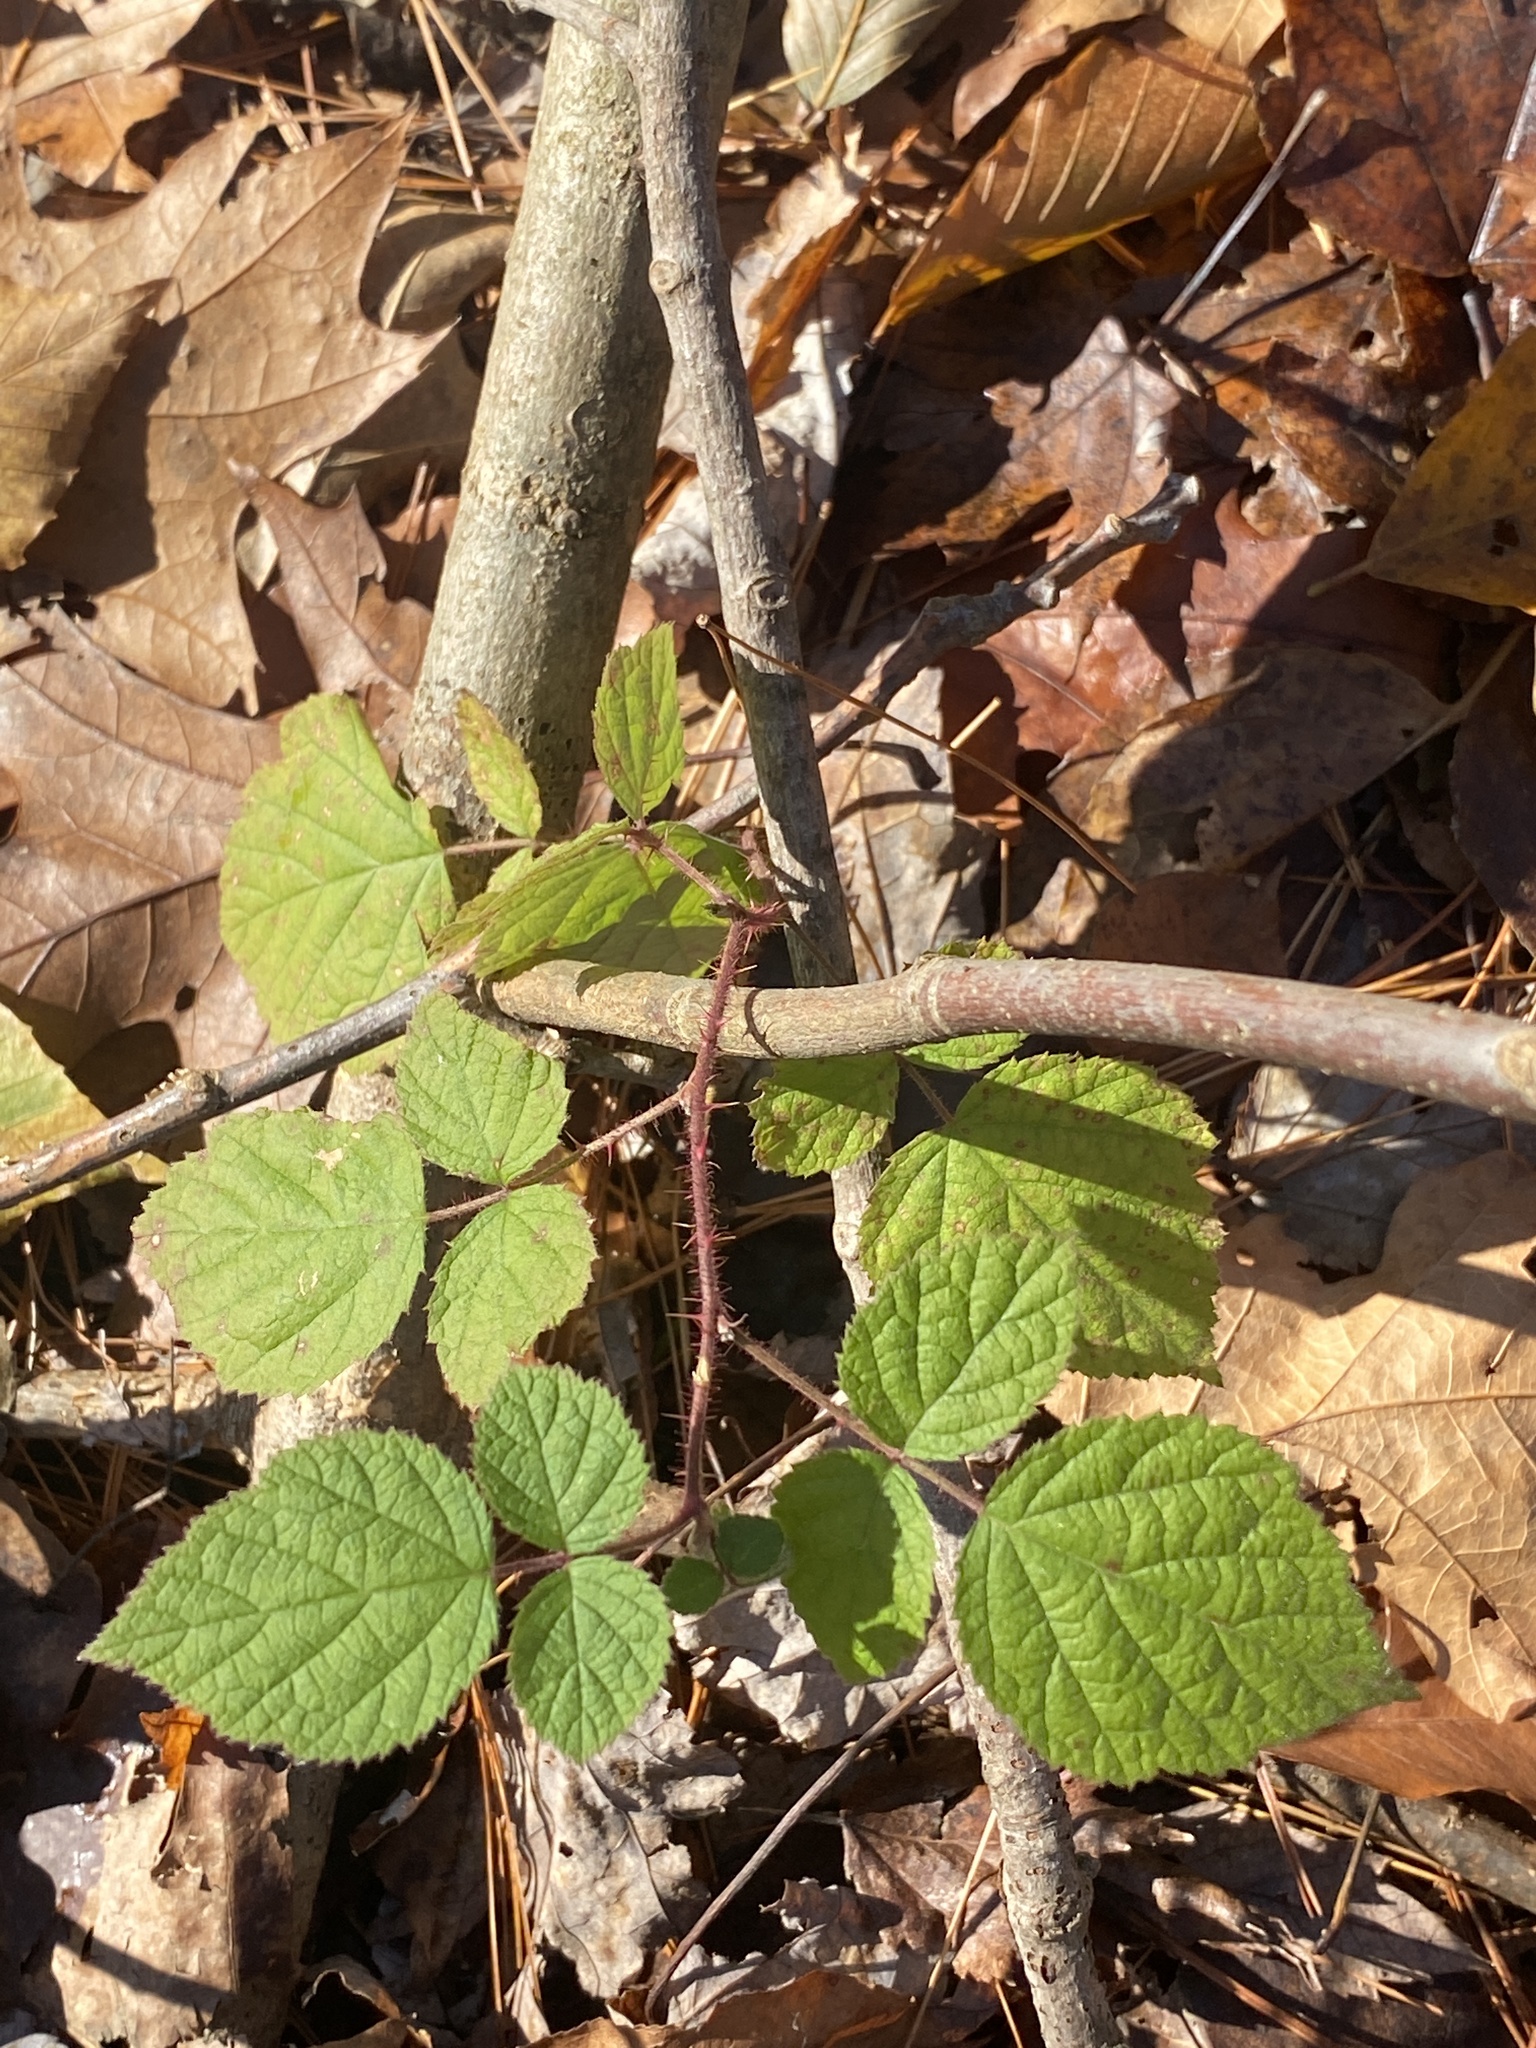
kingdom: Plantae
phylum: Tracheophyta
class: Magnoliopsida
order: Rosales
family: Rosaceae
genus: Rubus
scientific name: Rubus phoenicolasius
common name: Japanese wineberry
